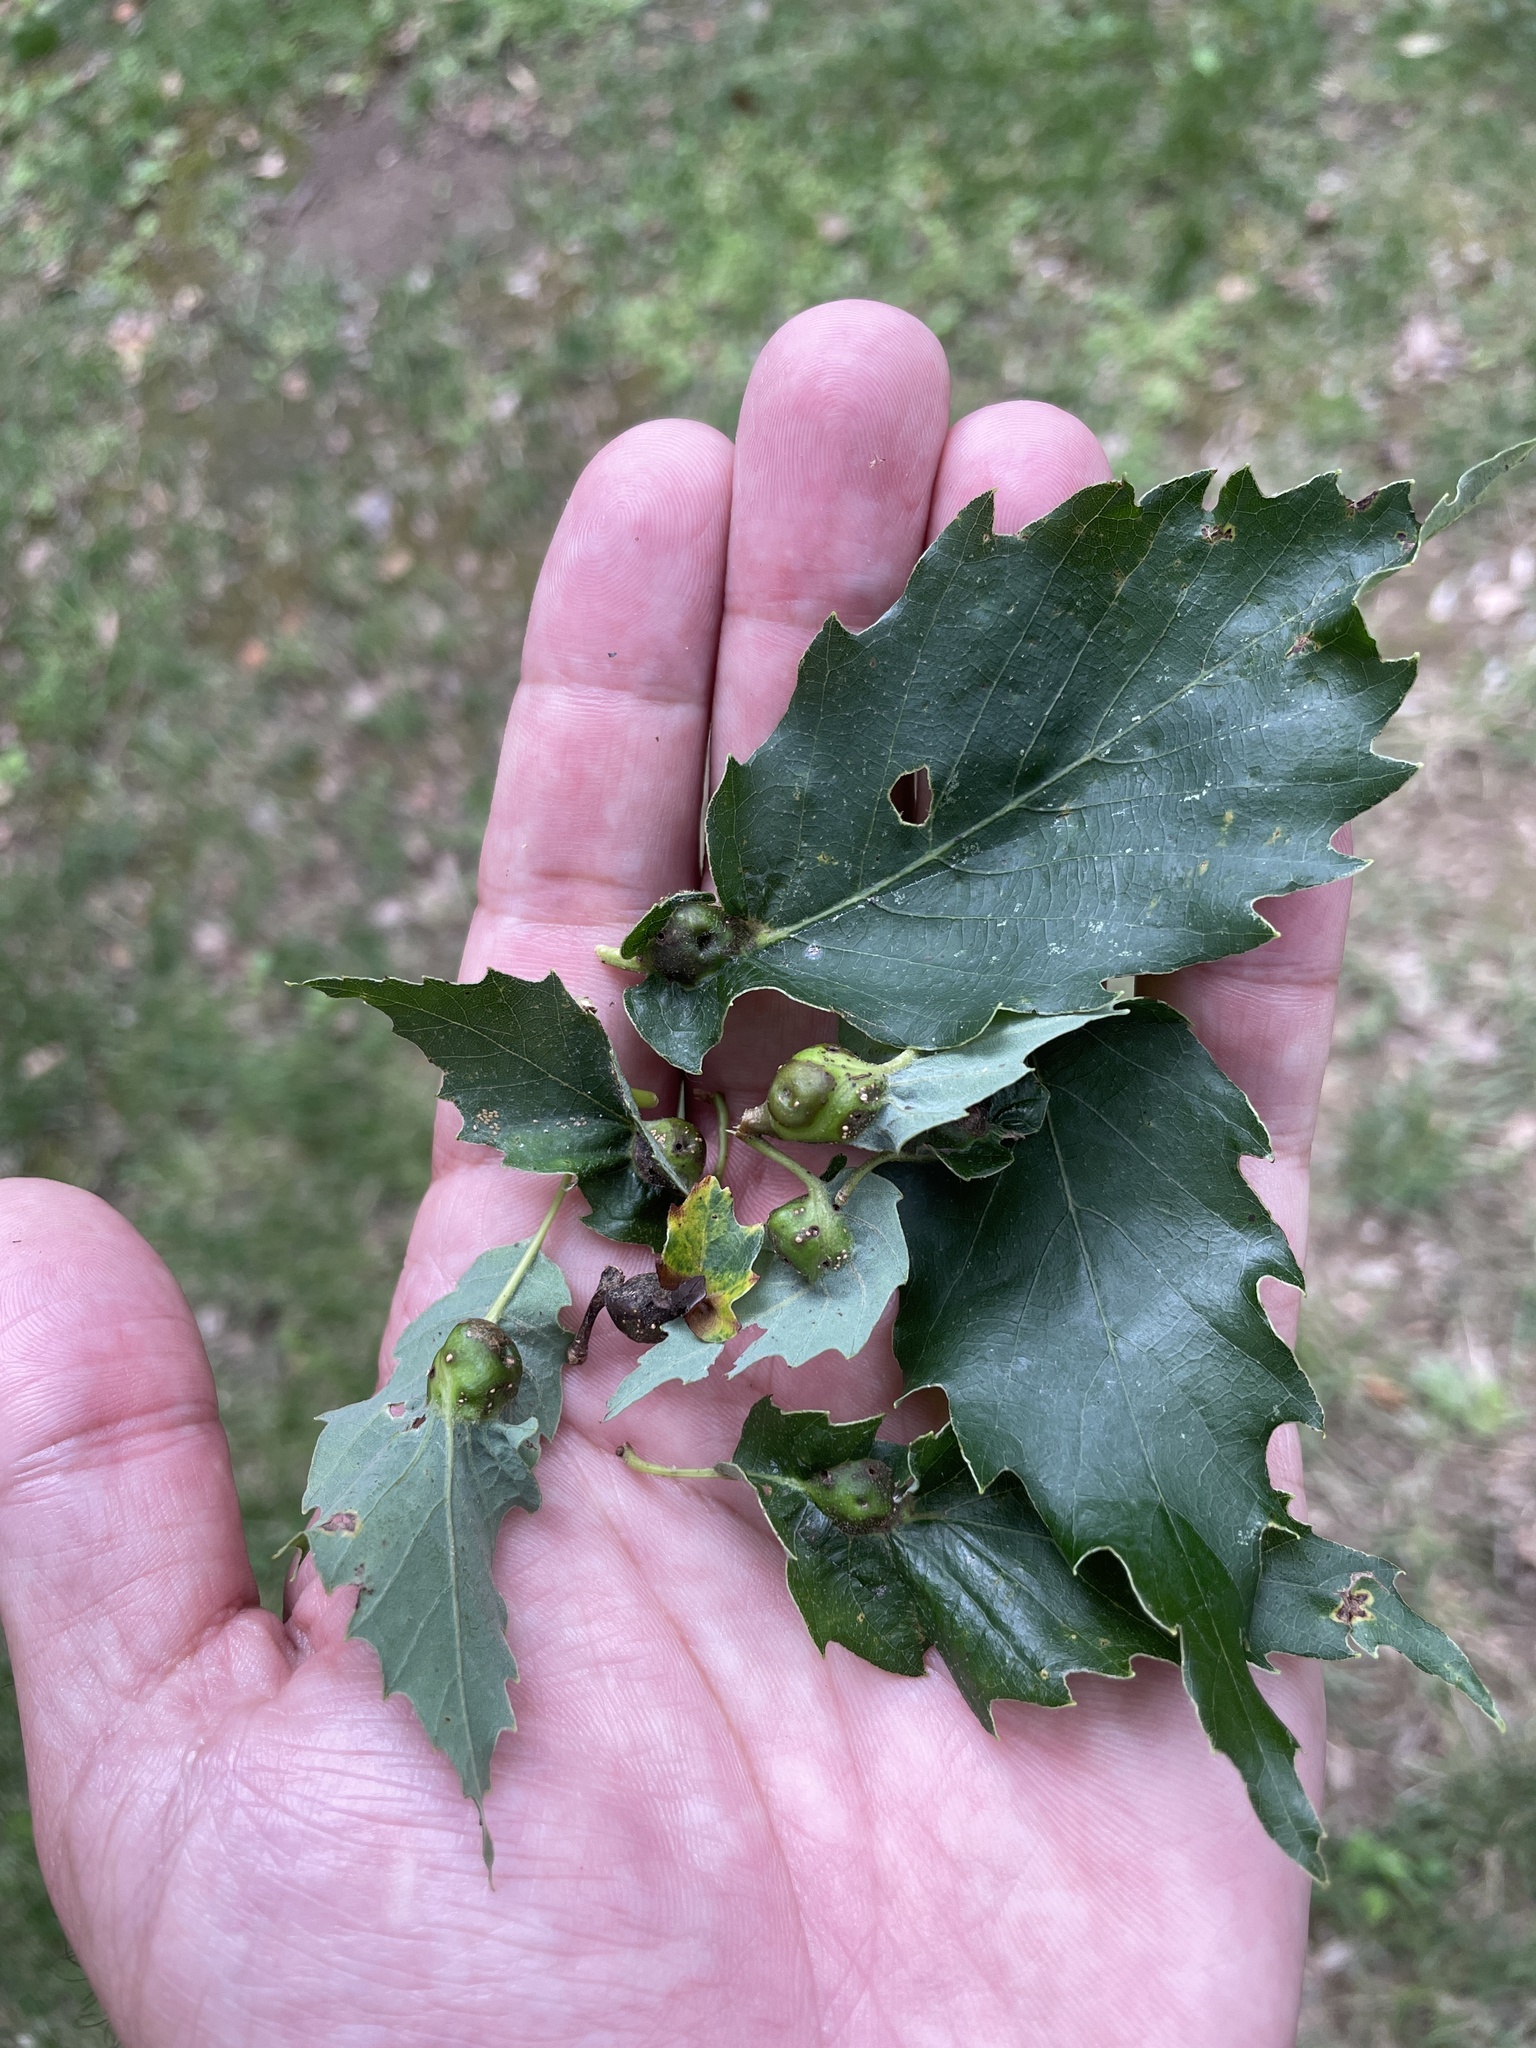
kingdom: Animalia
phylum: Arthropoda
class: Insecta
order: Hymenoptera
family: Cynipidae
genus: Andricus
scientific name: Andricus
